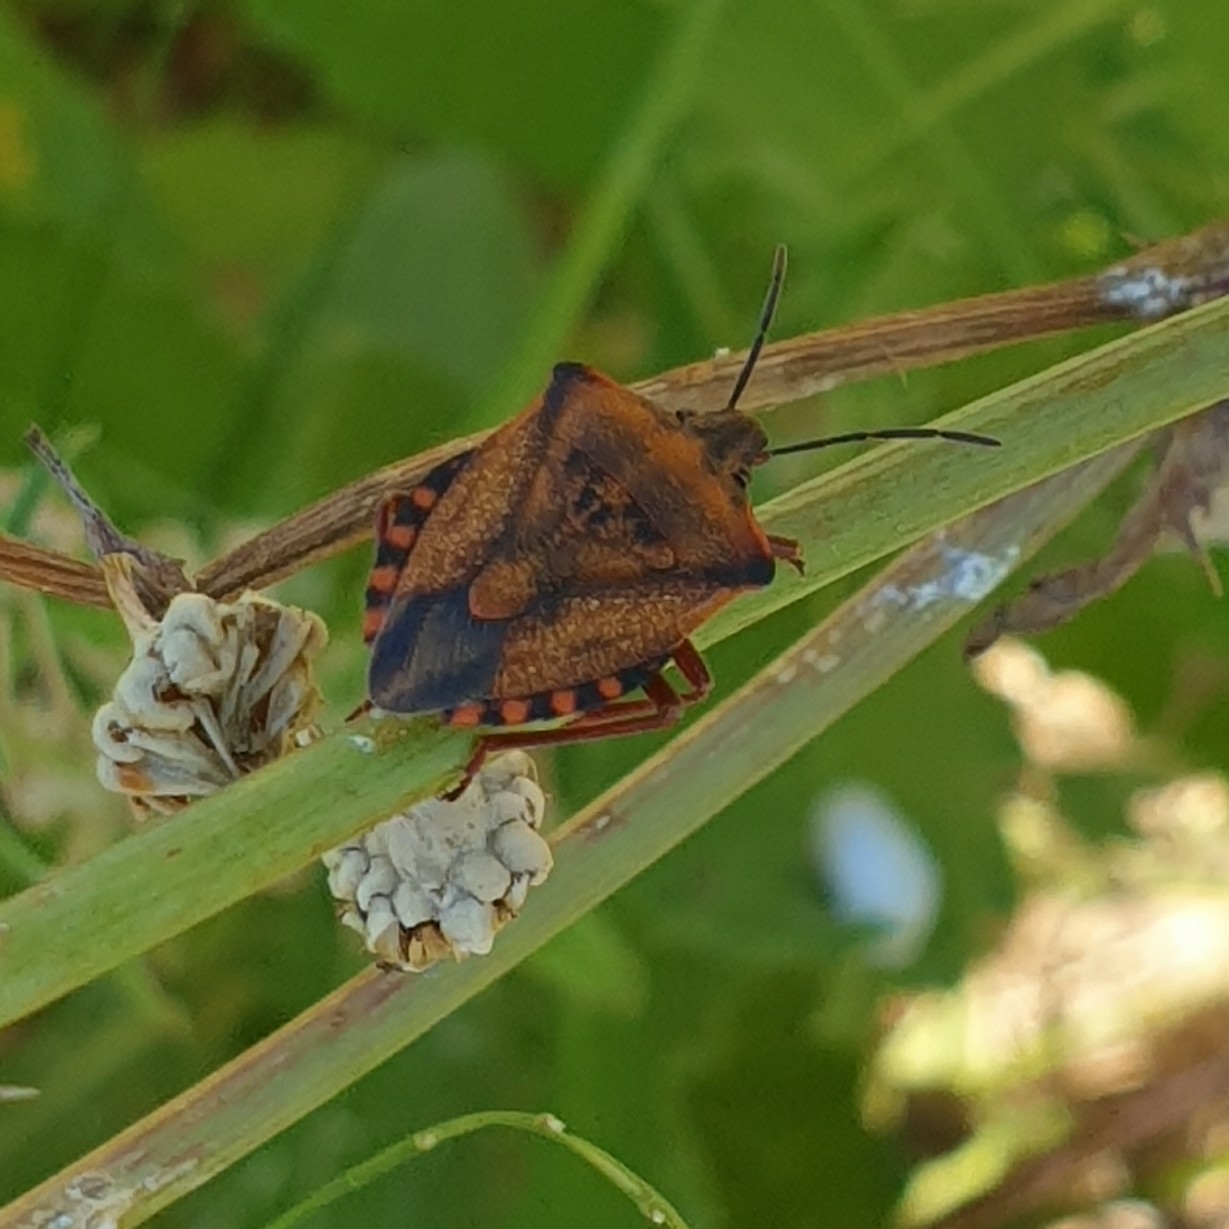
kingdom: Animalia
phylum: Arthropoda
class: Insecta
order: Hemiptera
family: Pentatomidae
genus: Carpocoris
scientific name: Carpocoris mediterraneus
